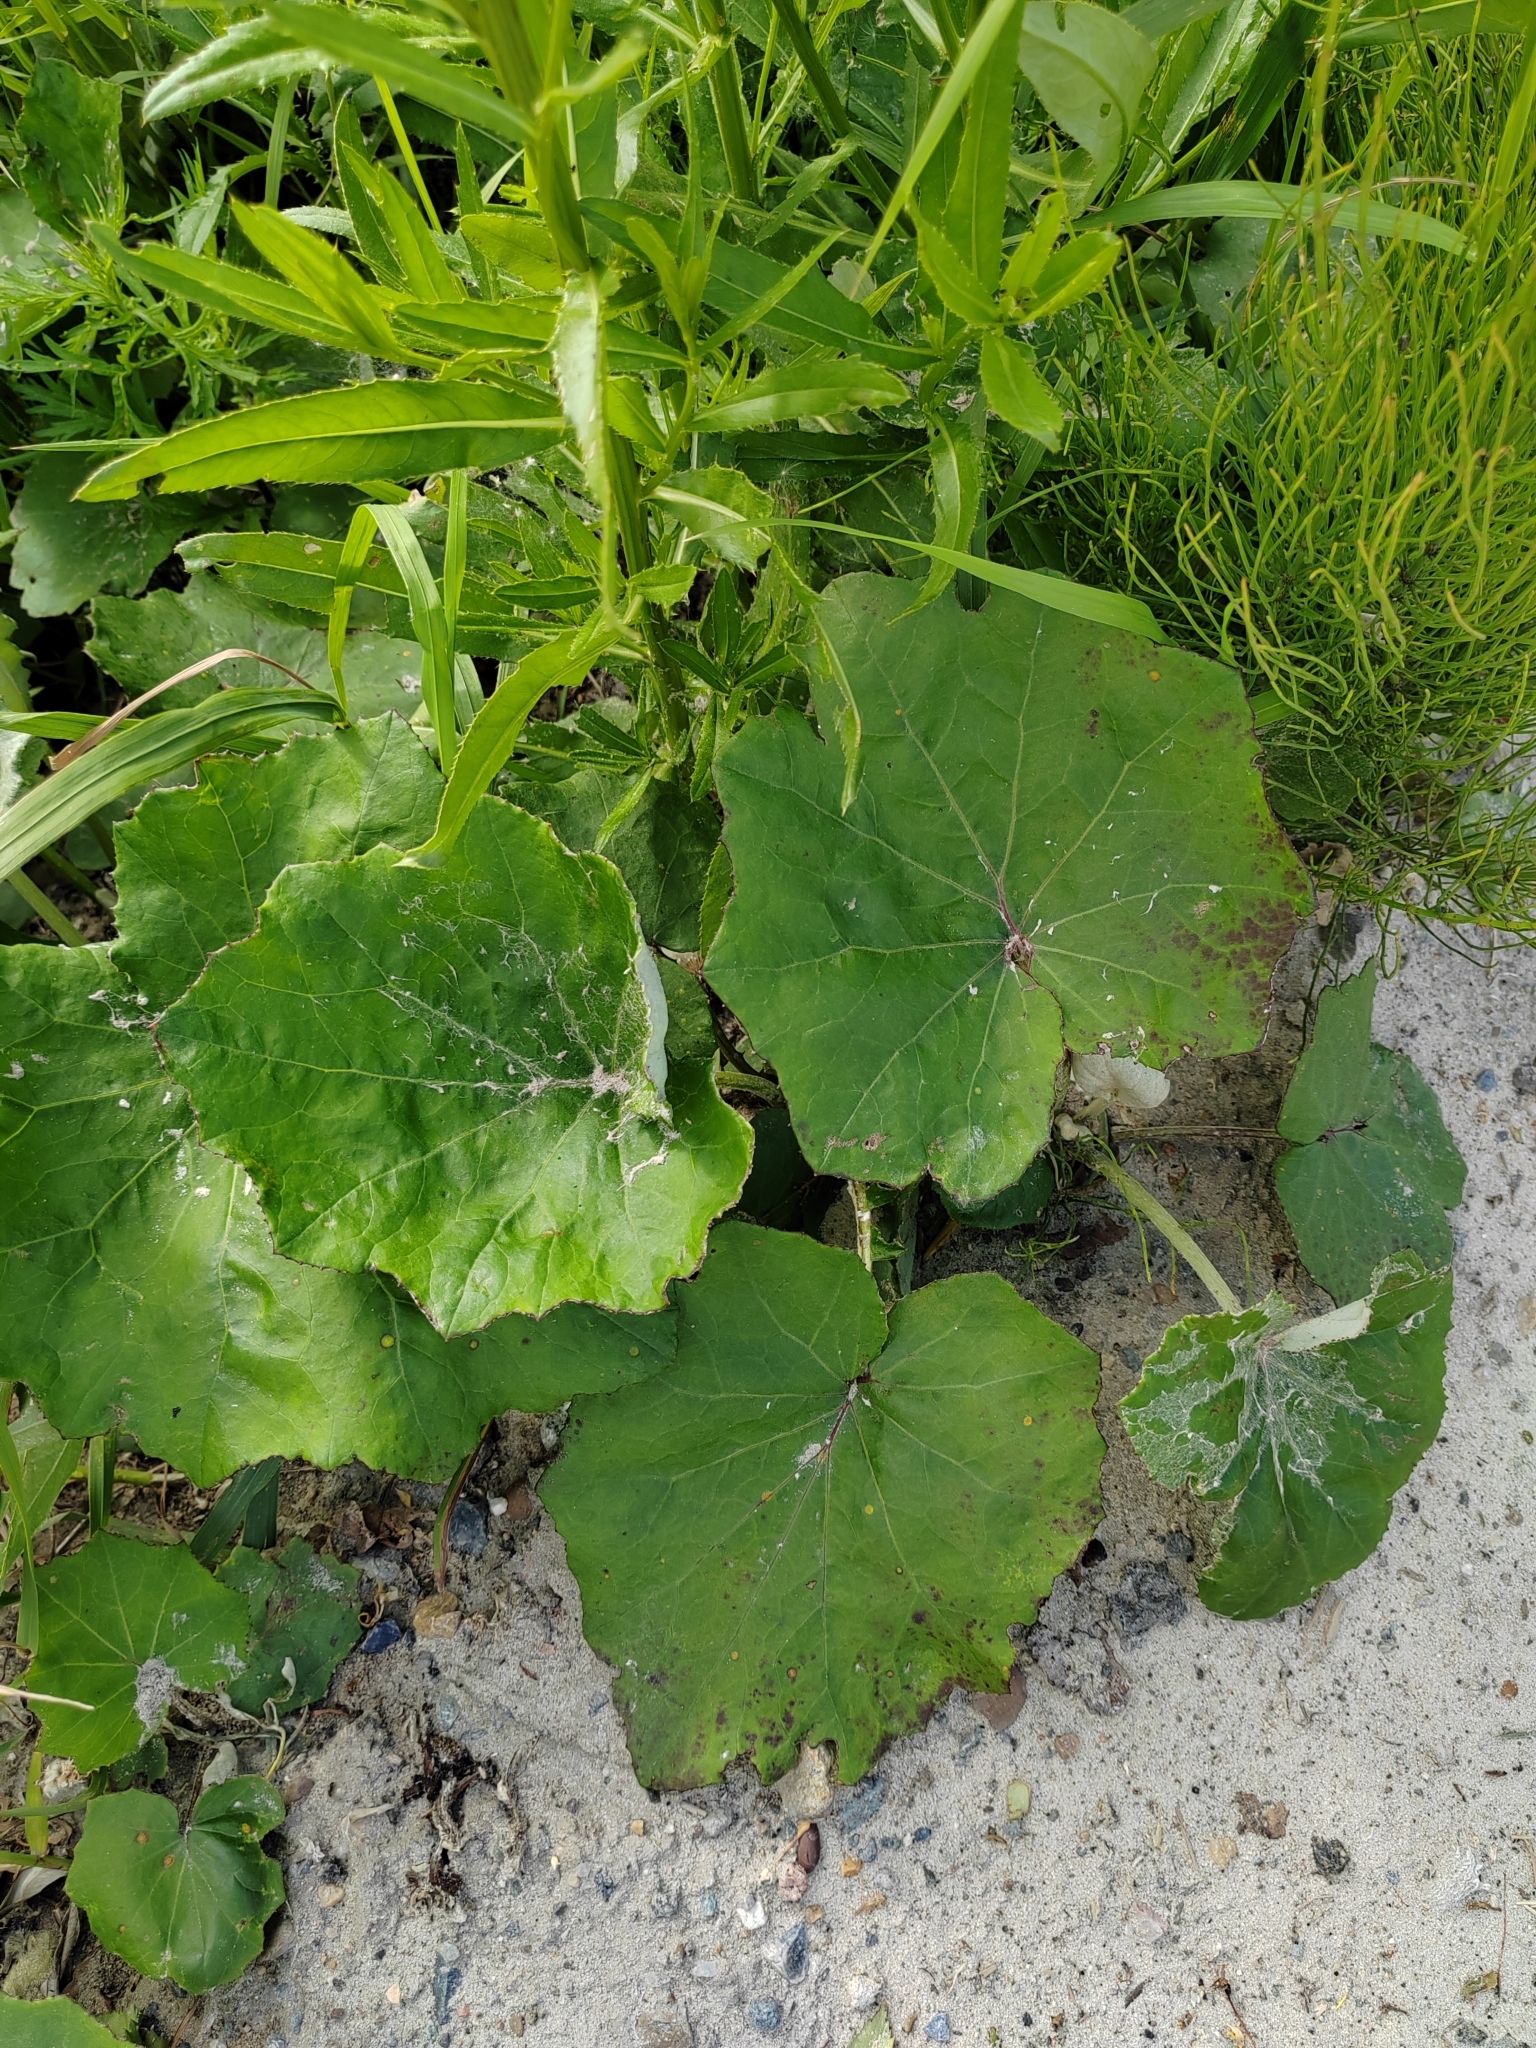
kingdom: Plantae
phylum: Tracheophyta
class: Magnoliopsida
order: Asterales
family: Asteraceae
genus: Tussilago
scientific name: Tussilago farfara
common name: Coltsfoot
